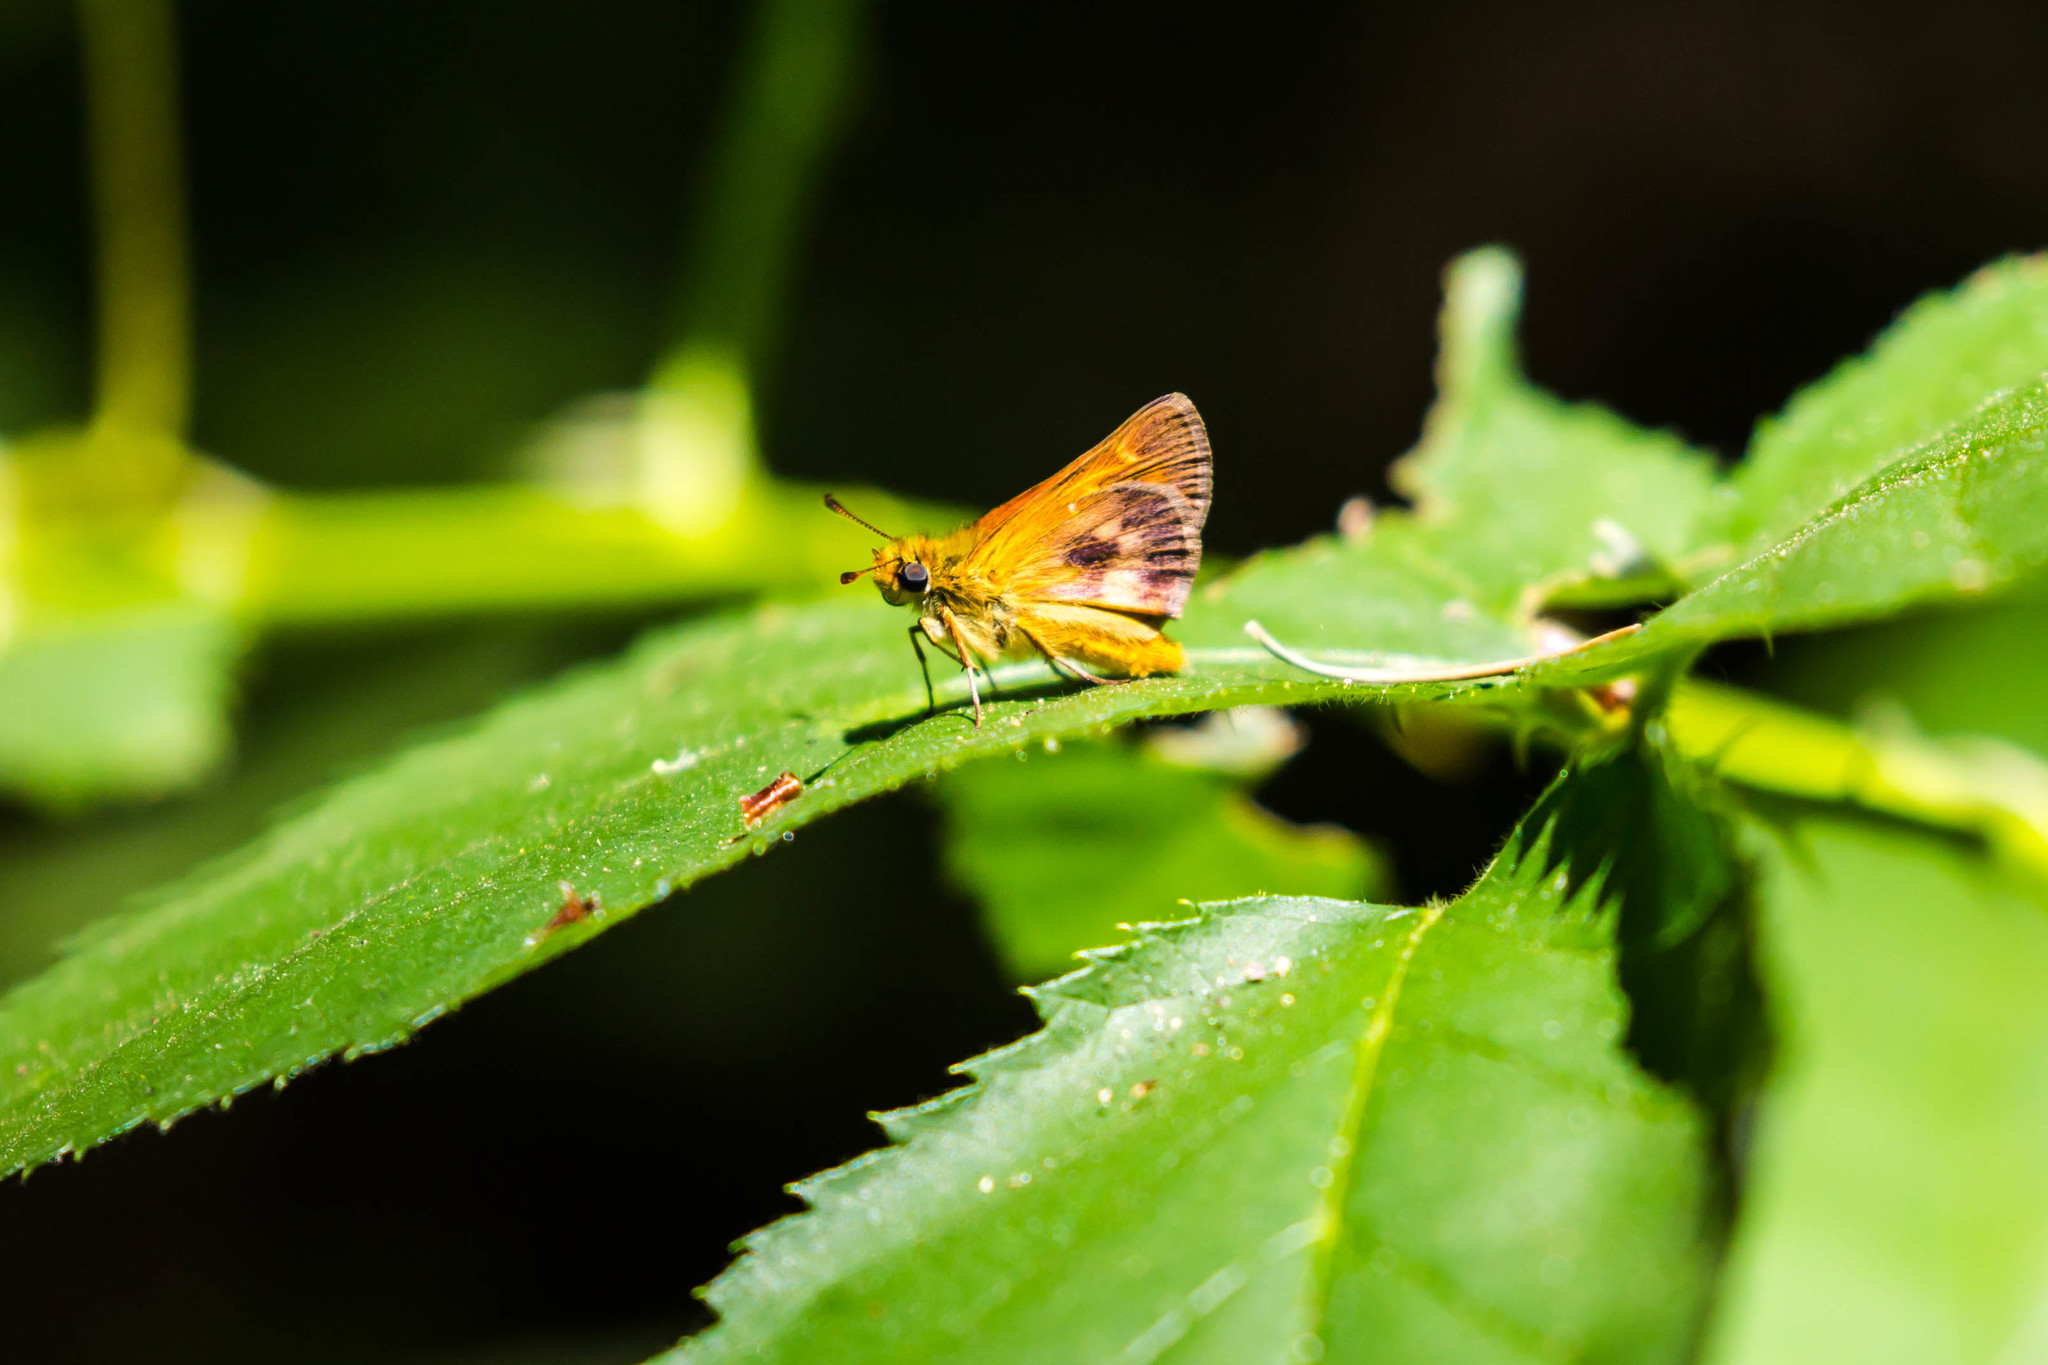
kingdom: Animalia
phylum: Arthropoda
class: Insecta
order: Lepidoptera
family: Hesperiidae
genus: Ochlodes
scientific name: Ochlodes agricola
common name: Rural skipper
